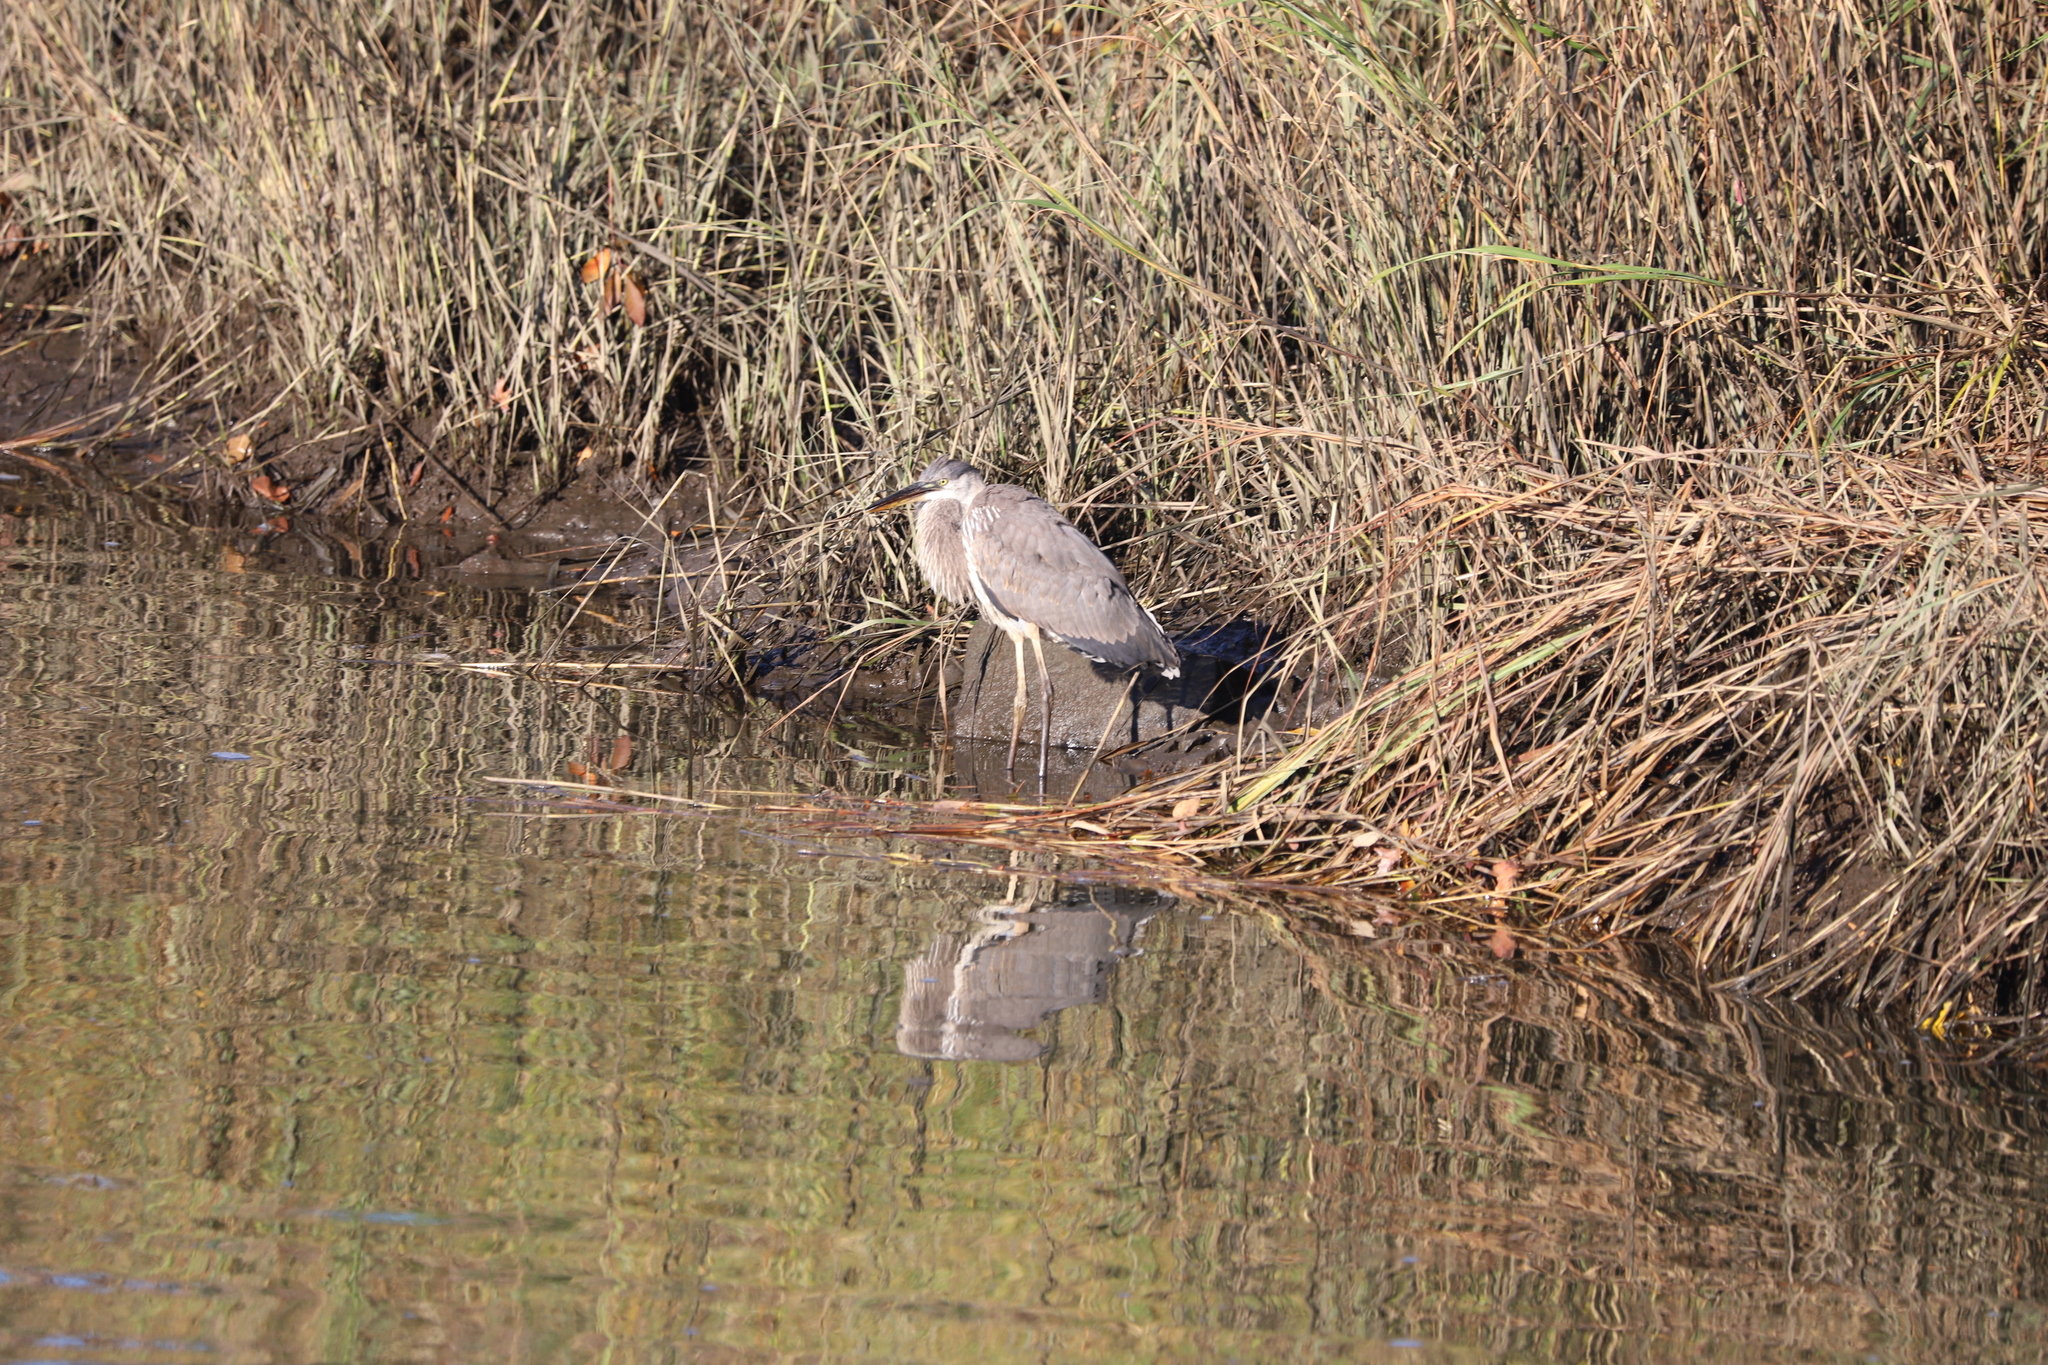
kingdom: Animalia
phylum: Chordata
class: Aves
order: Pelecaniformes
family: Ardeidae
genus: Ardea
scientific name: Ardea herodias
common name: Great blue heron
